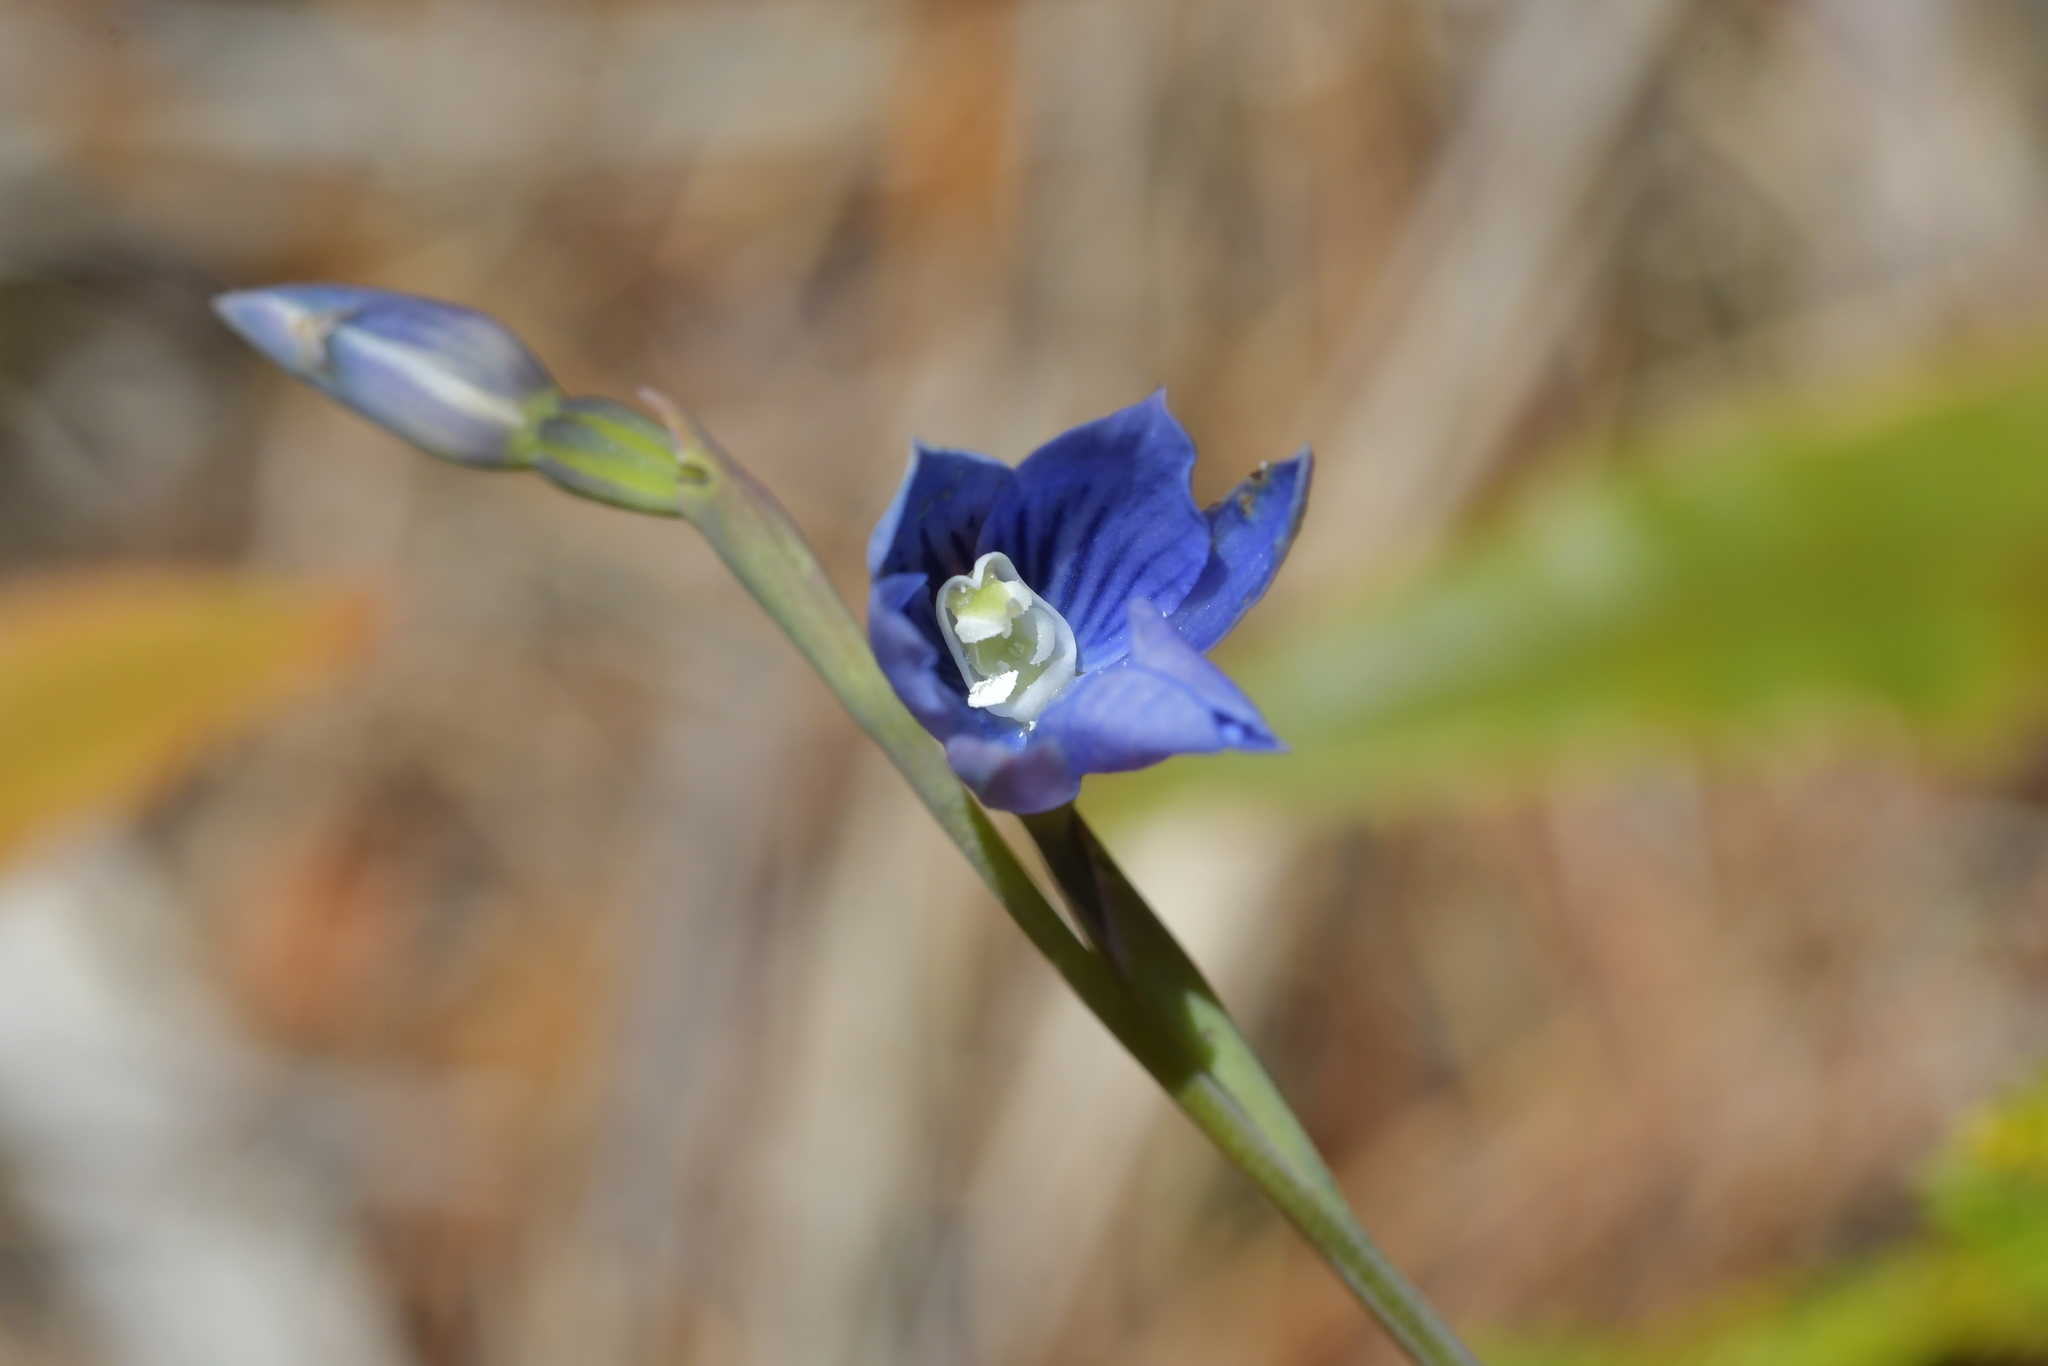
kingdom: Plantae
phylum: Tracheophyta
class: Liliopsida
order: Asparagales
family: Orchidaceae
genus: Thelymitra
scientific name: Thelymitra cyanea
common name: Blue sun-orchid
